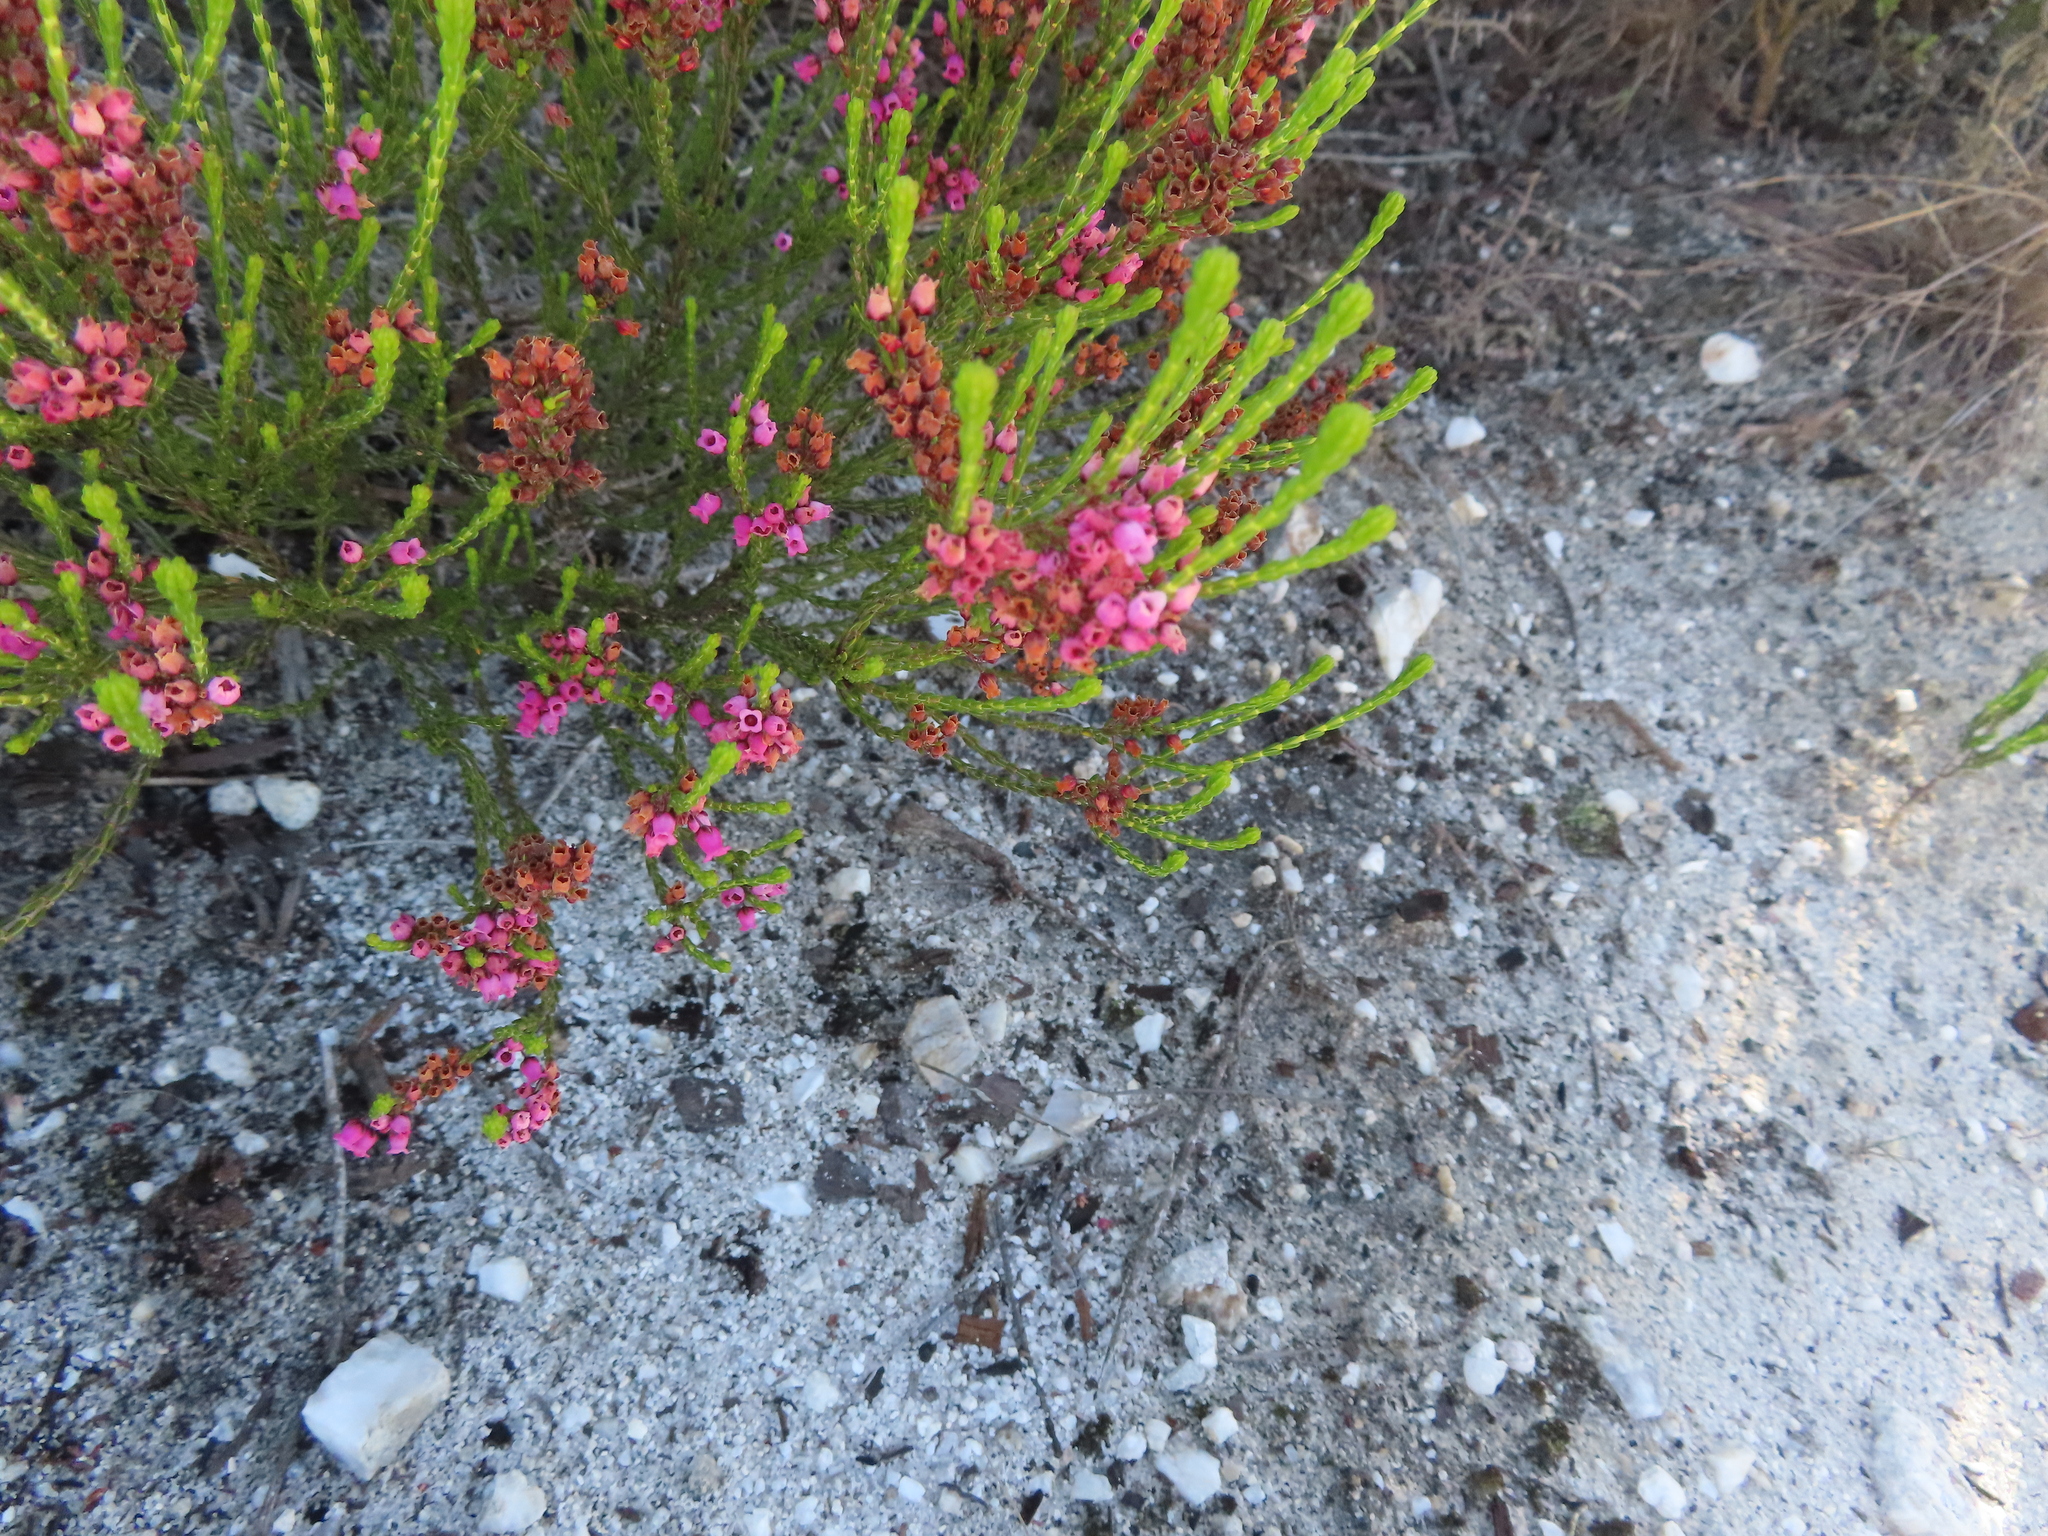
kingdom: Plantae
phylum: Tracheophyta
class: Magnoliopsida
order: Ericales
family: Ericaceae
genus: Erica
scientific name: Erica pulchella
